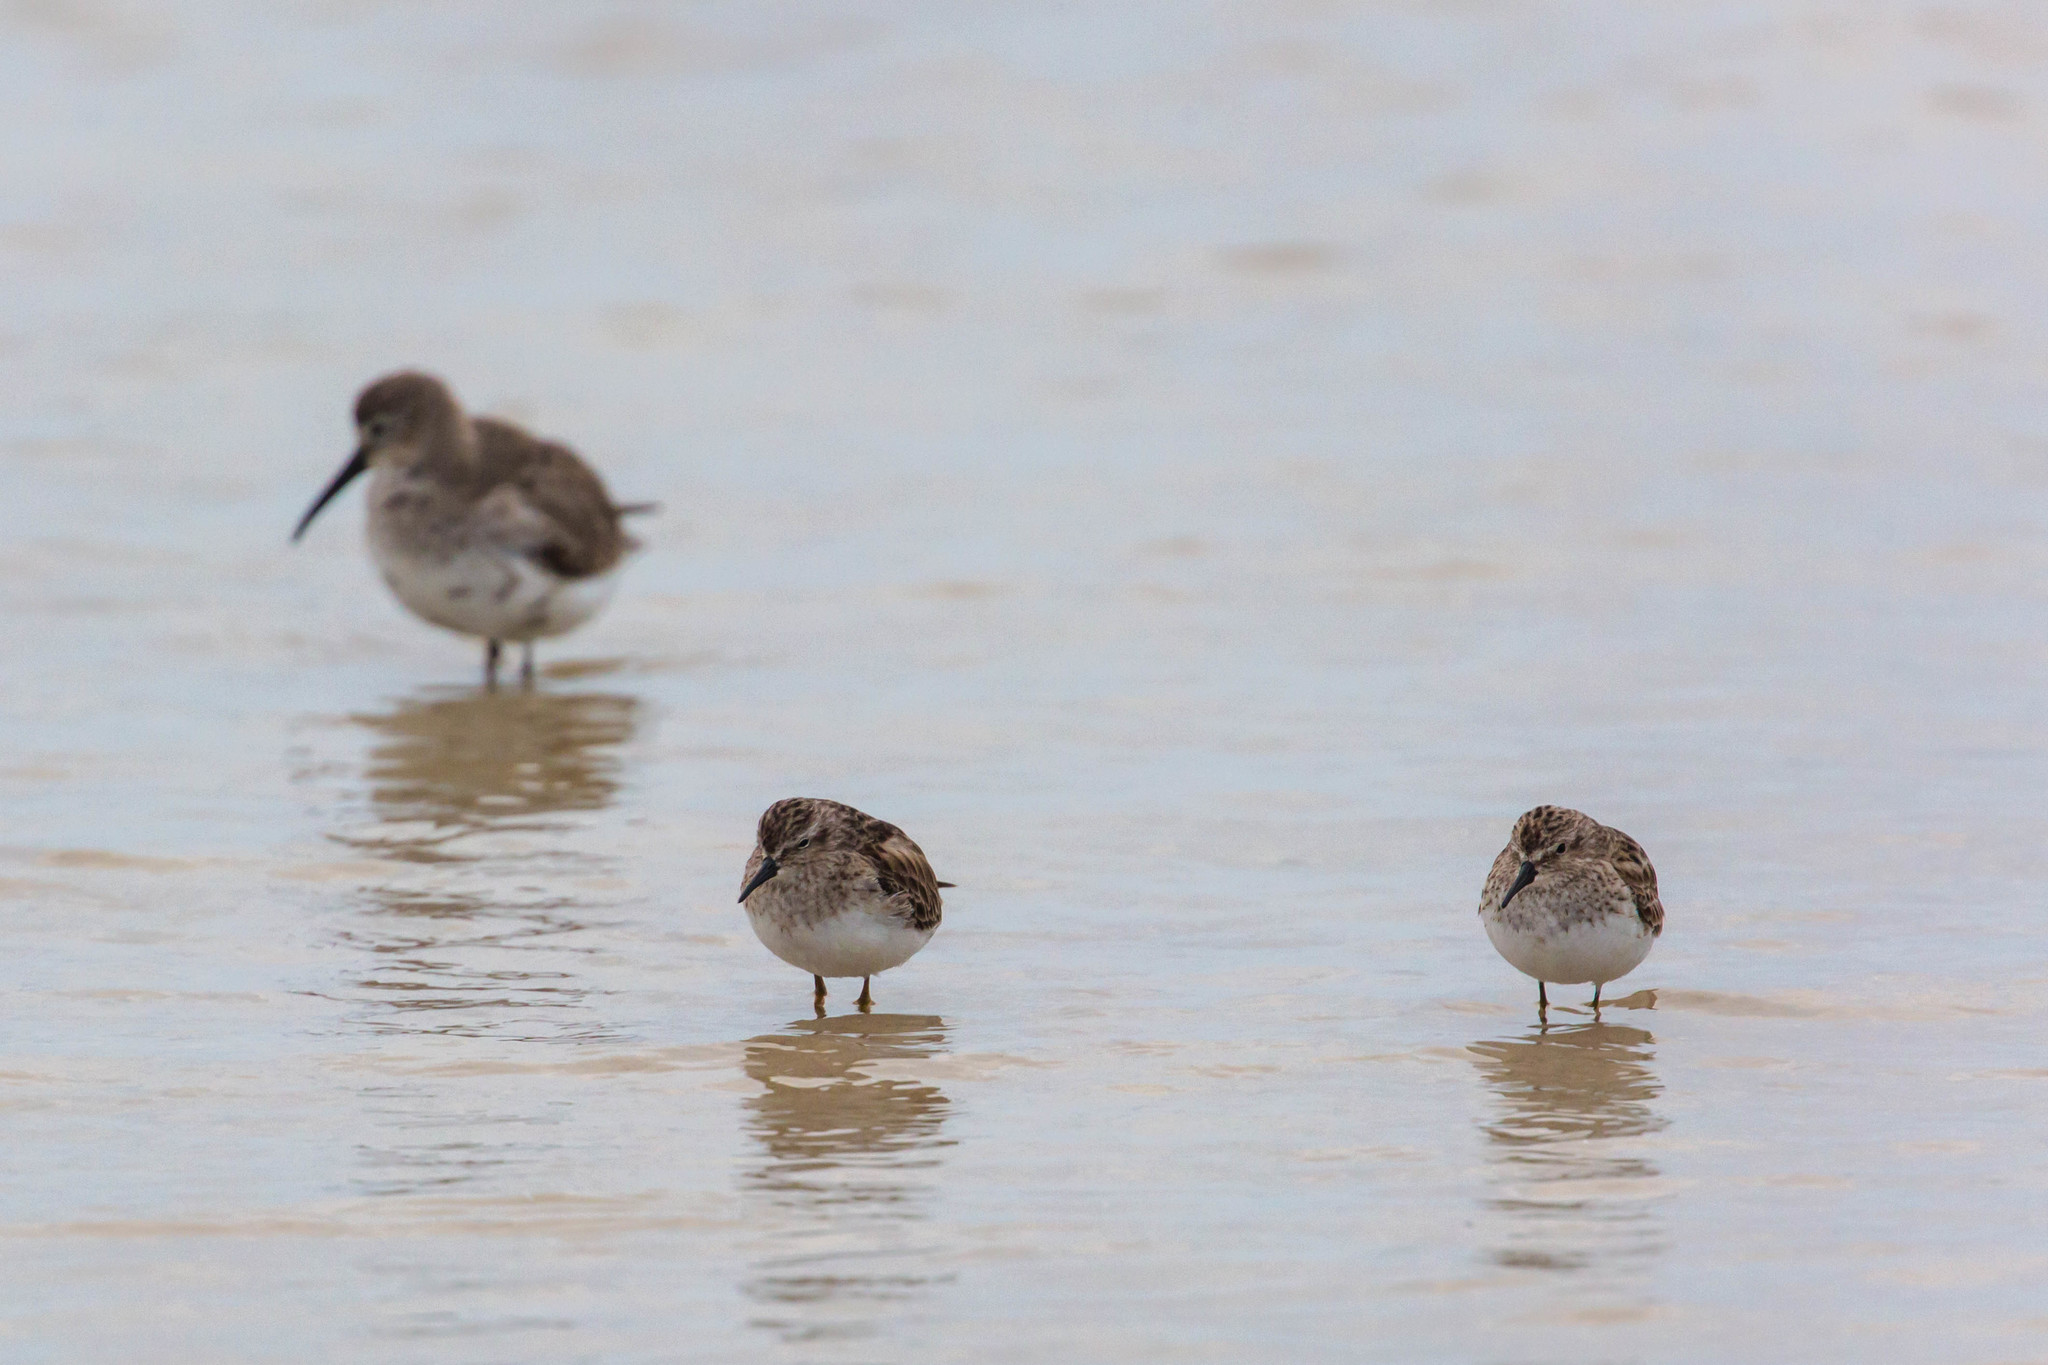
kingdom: Animalia
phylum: Chordata
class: Aves
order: Charadriiformes
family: Scolopacidae
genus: Calidris
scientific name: Calidris minutilla
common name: Least sandpiper
